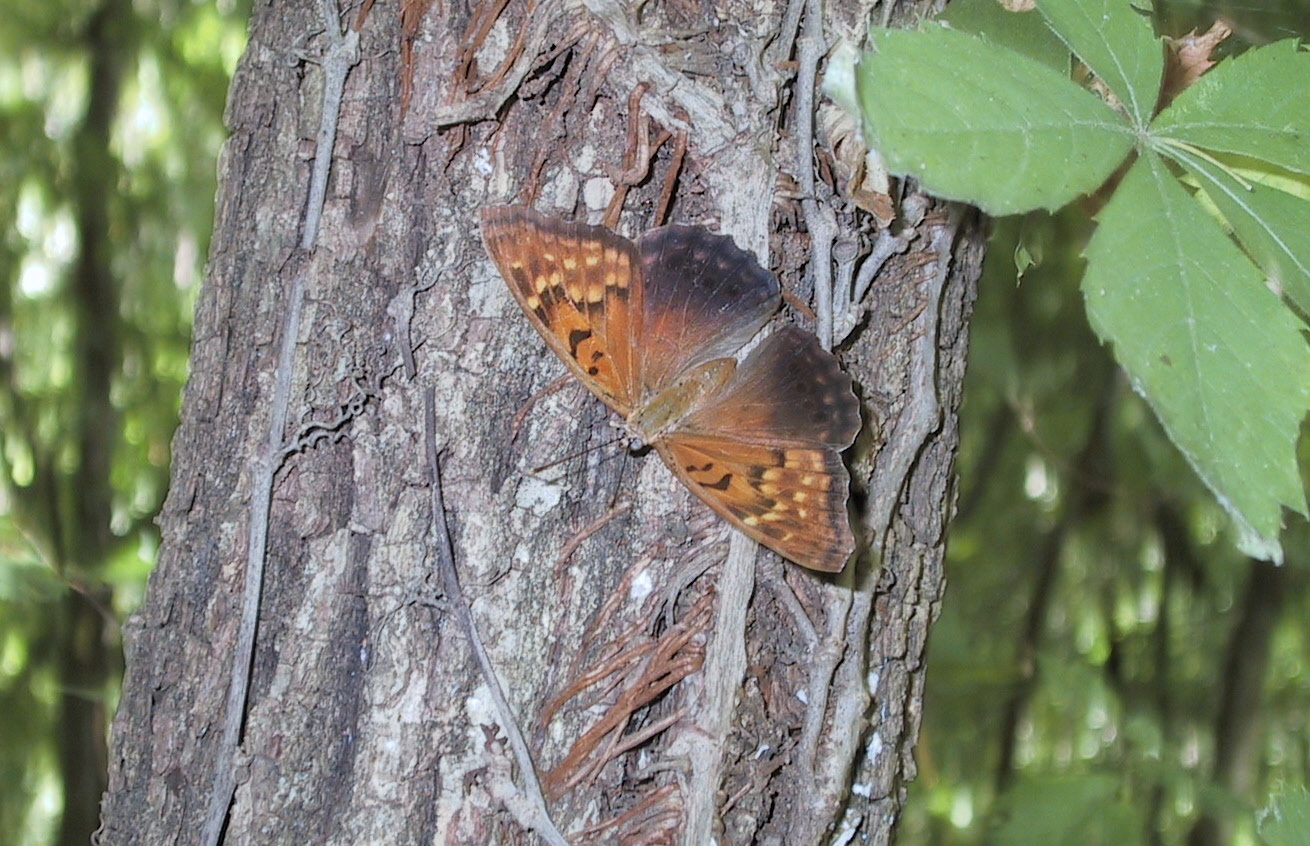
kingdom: Animalia
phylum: Arthropoda
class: Insecta
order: Lepidoptera
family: Nymphalidae
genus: Asterocampa
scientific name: Asterocampa clyton
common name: Tawny emperor
